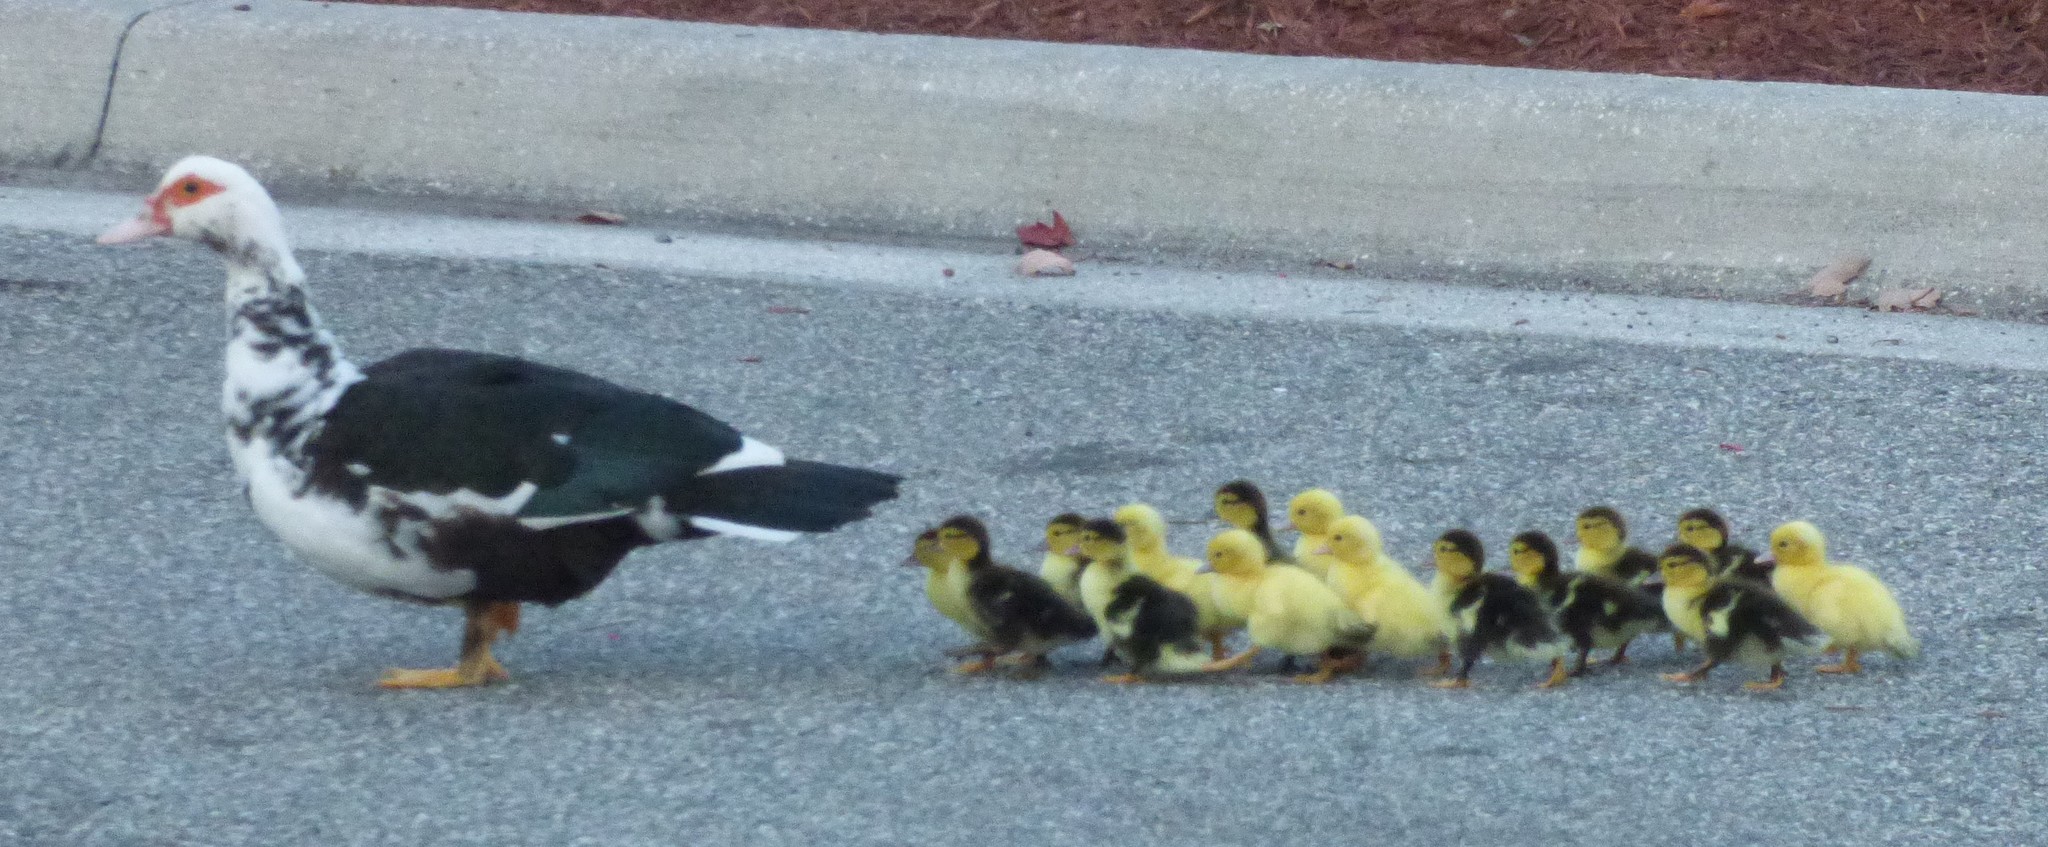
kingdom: Animalia
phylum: Chordata
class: Aves
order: Anseriformes
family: Anatidae
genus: Cairina
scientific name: Cairina moschata
